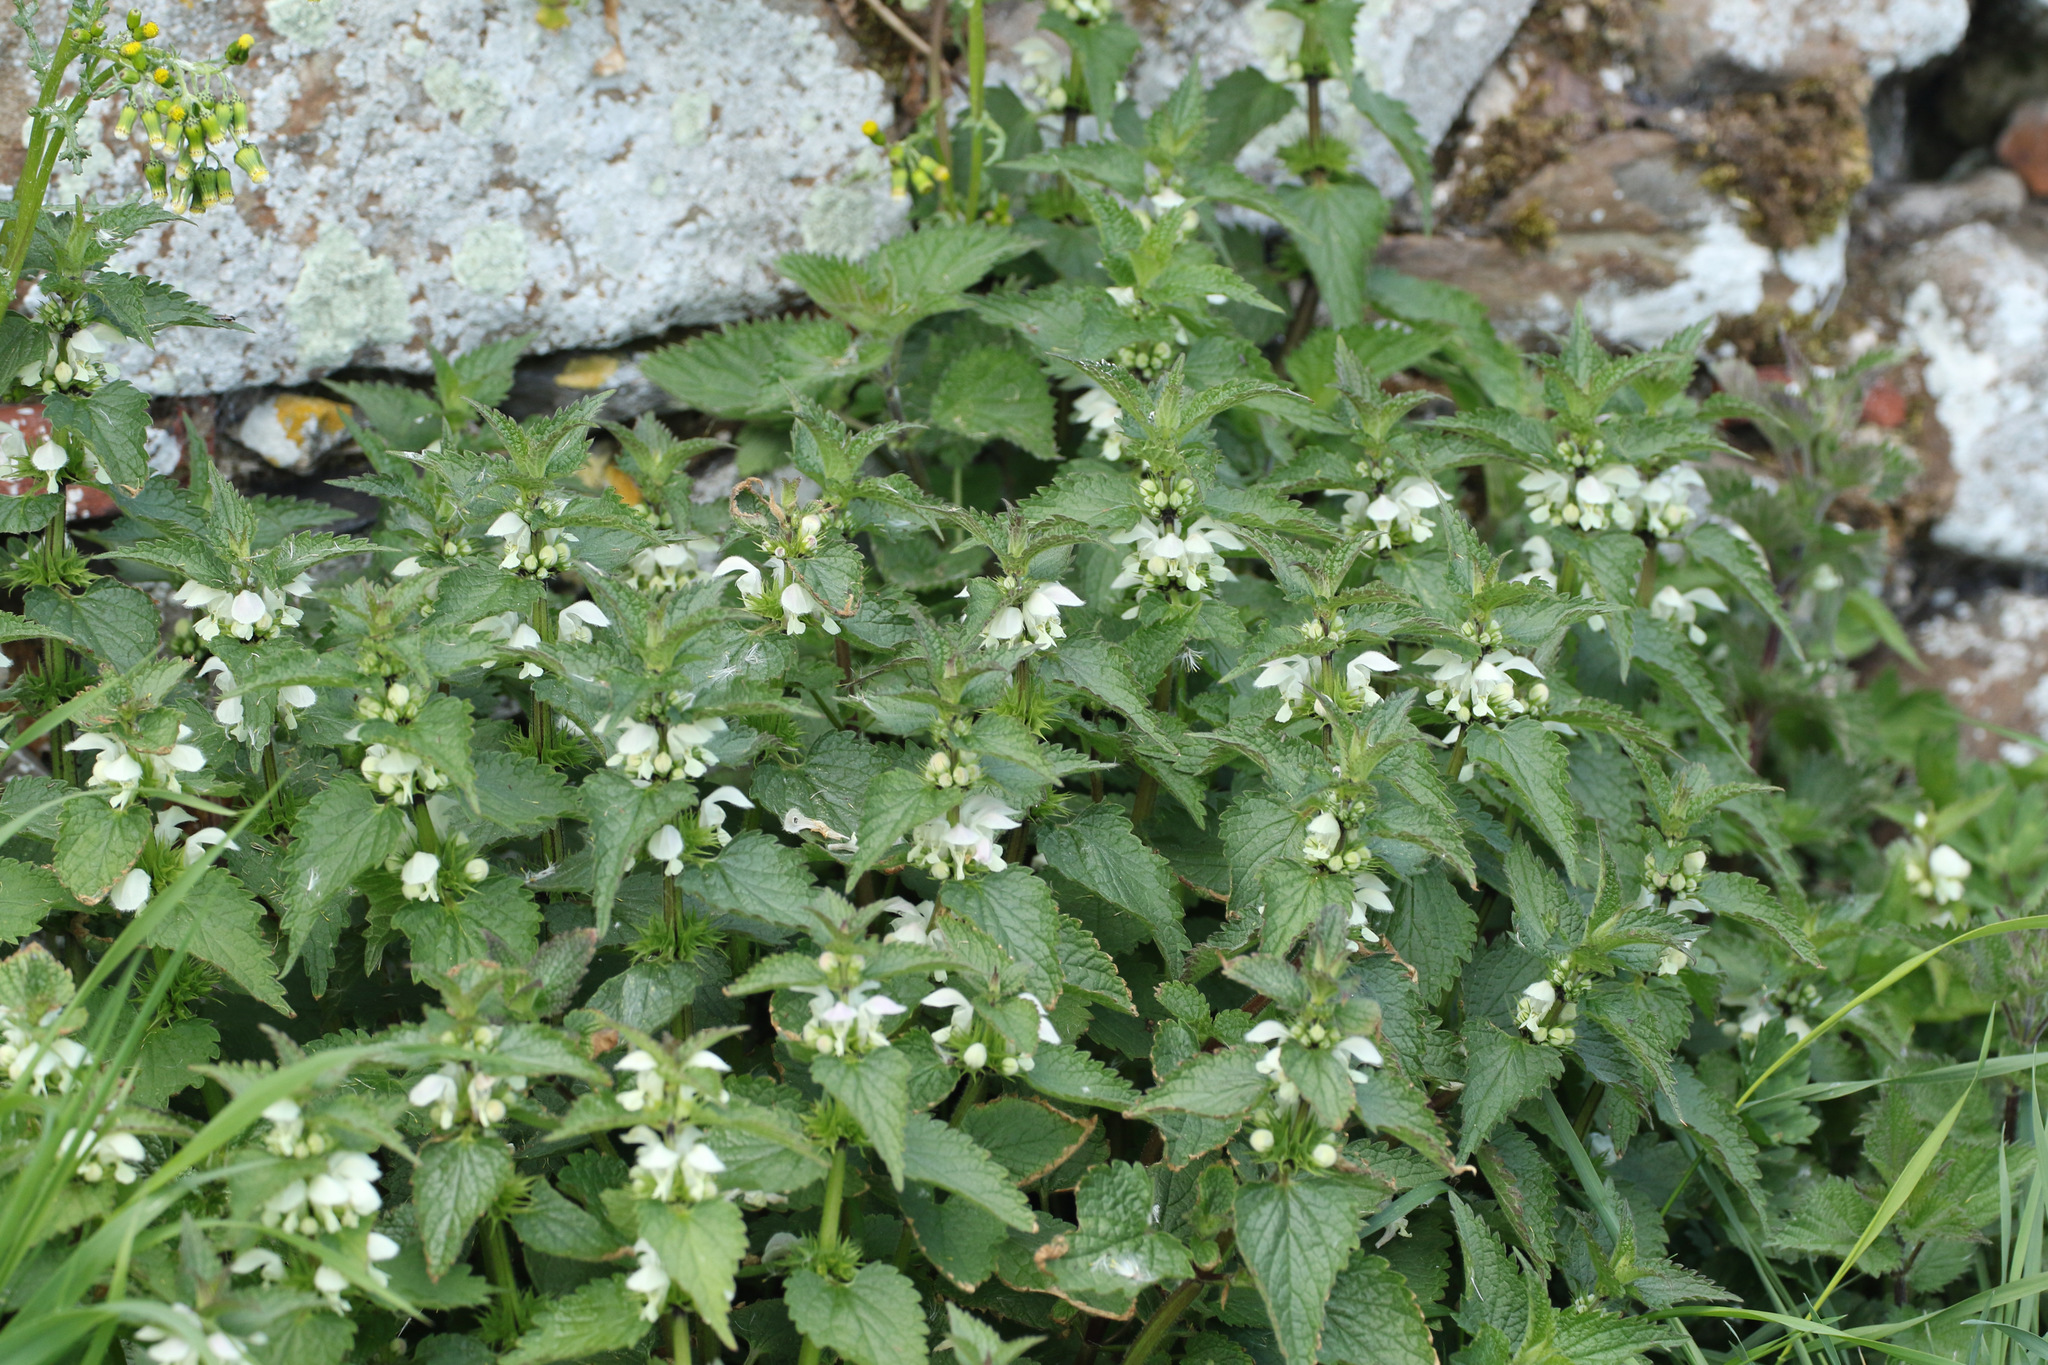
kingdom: Plantae
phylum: Tracheophyta
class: Magnoliopsida
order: Lamiales
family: Lamiaceae
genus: Lamium
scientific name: Lamium album
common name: White dead-nettle
